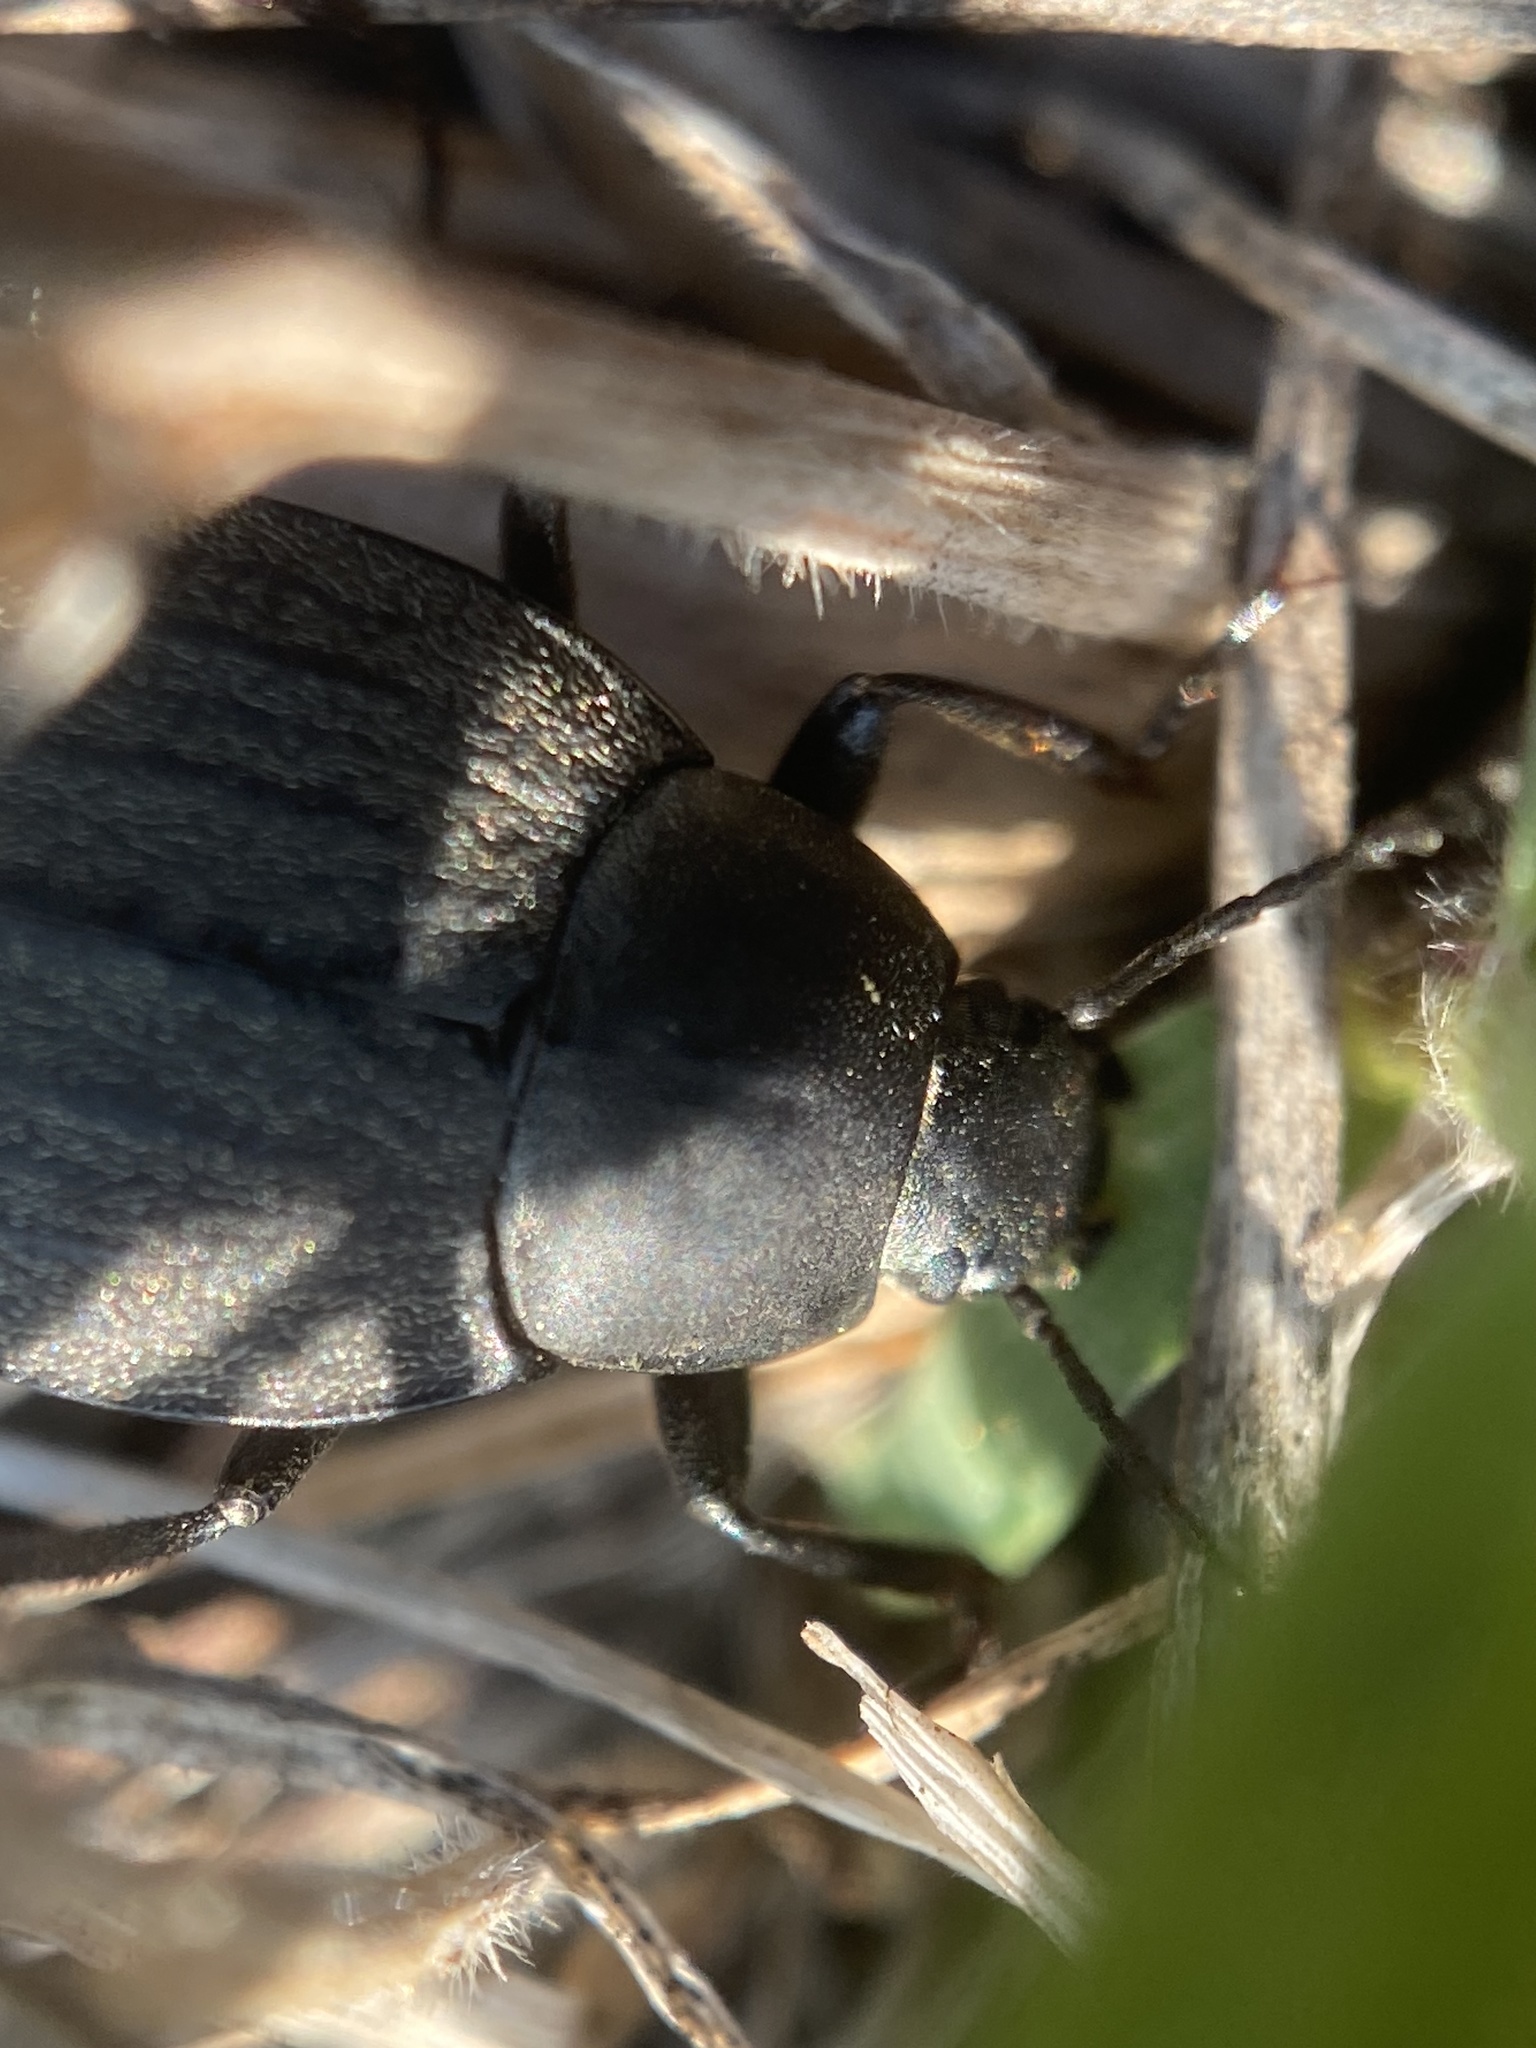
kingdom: Animalia
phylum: Arthropoda
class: Insecta
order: Coleoptera
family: Tenebrionidae
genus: Eleodes
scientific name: Eleodes opaca
